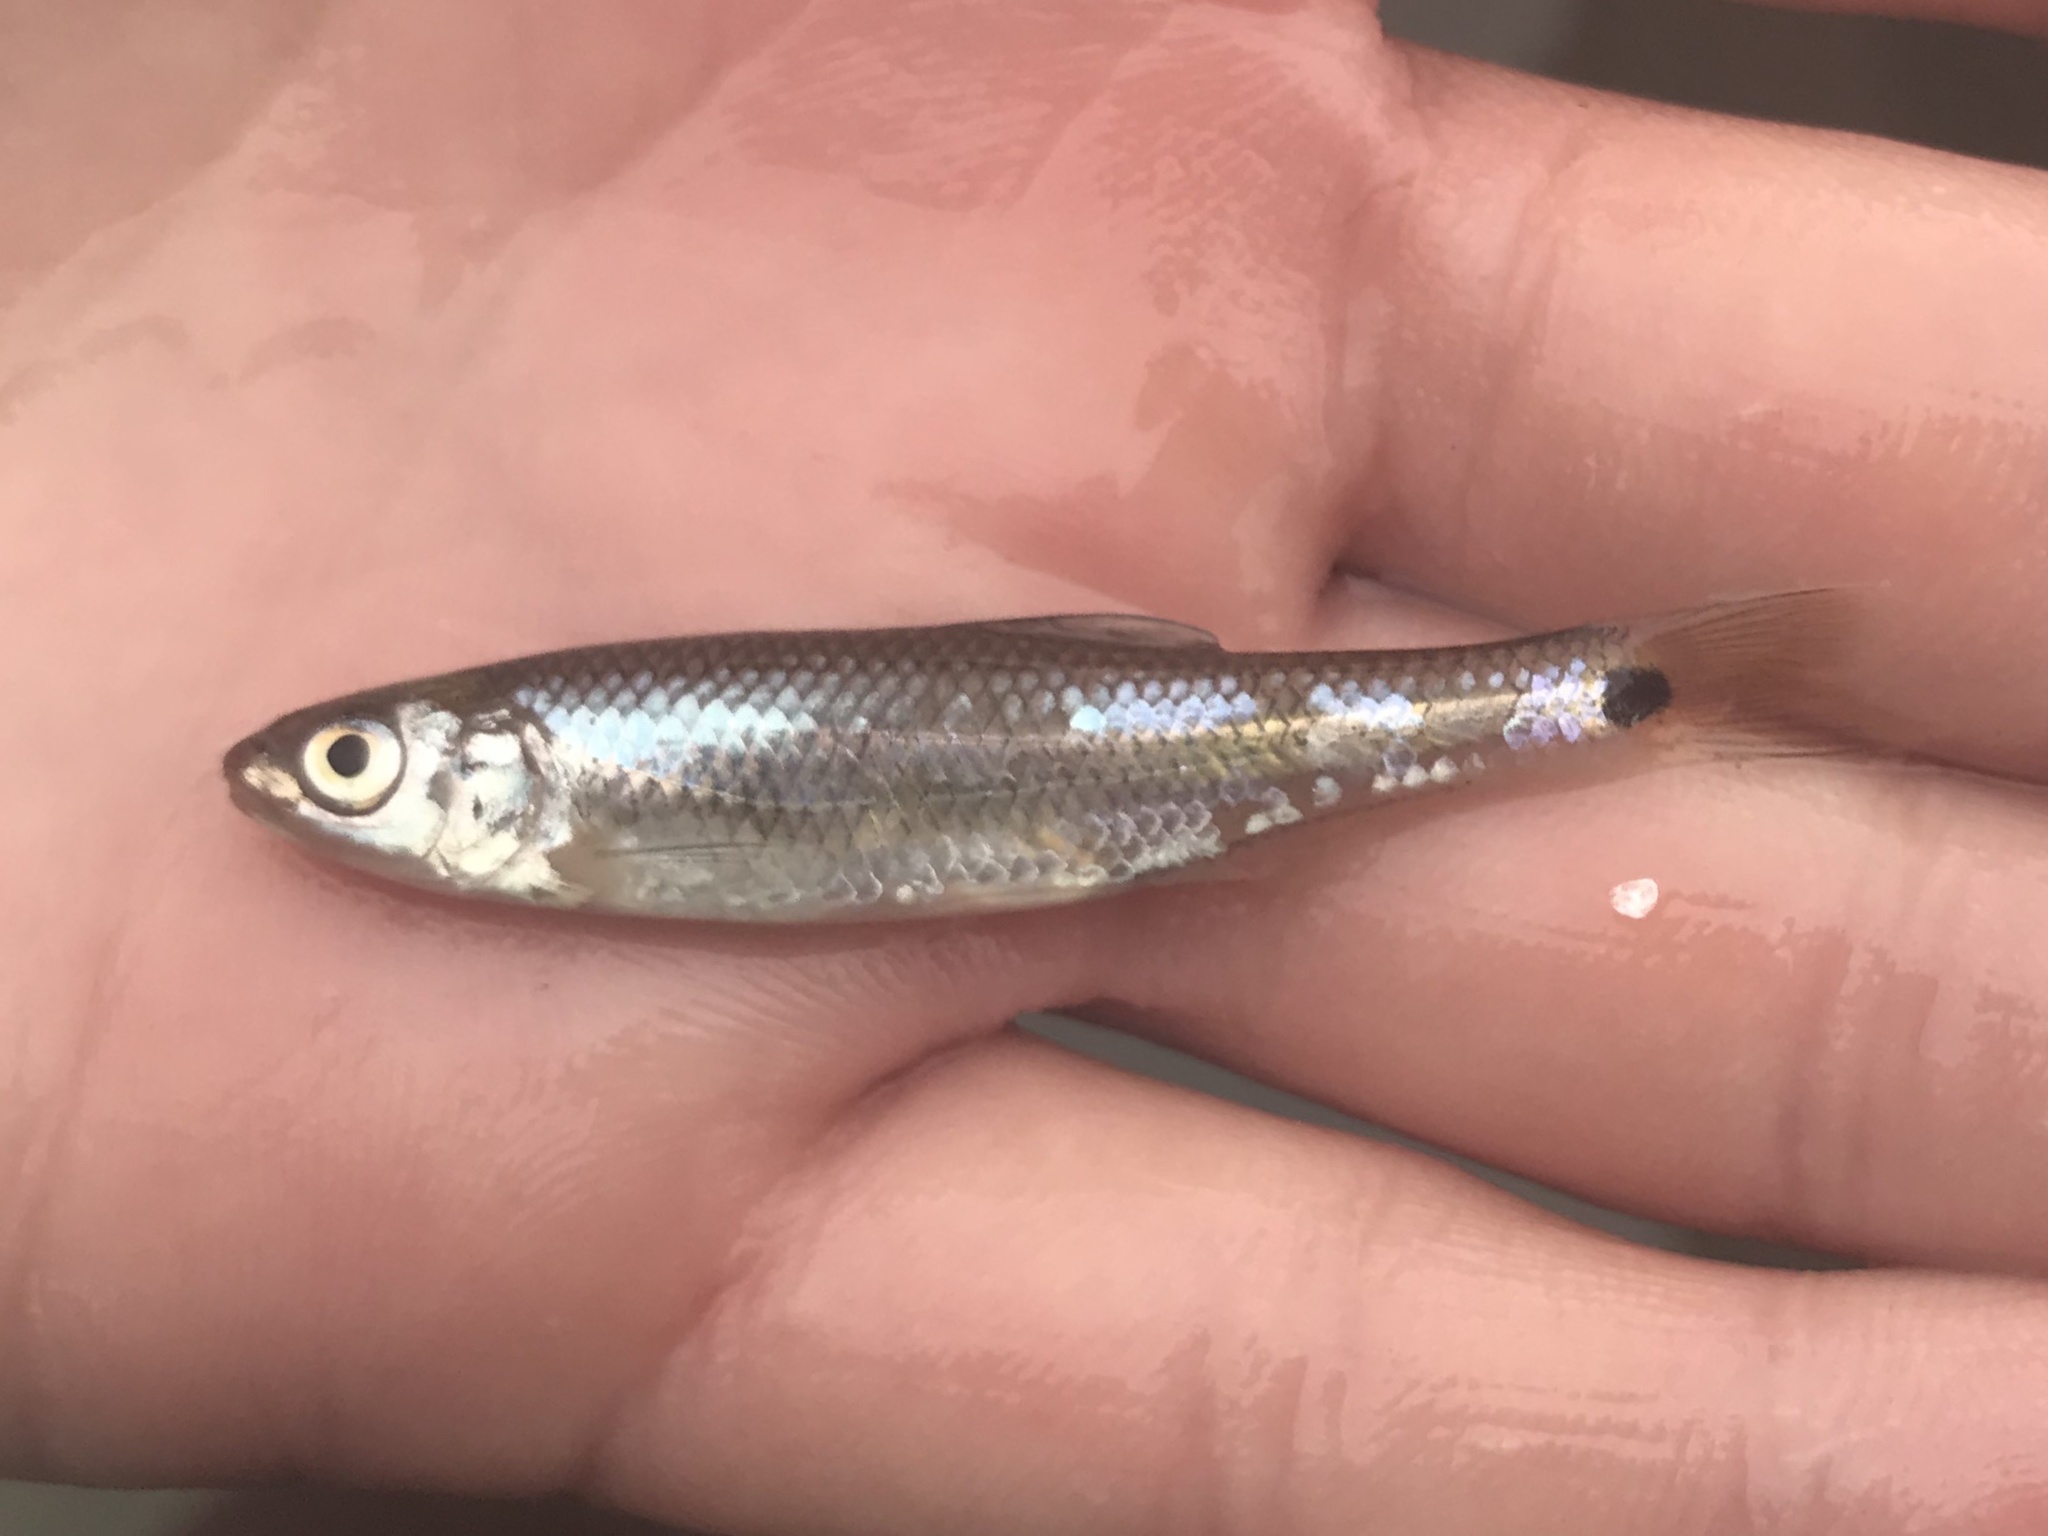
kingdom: Animalia
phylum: Chordata
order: Cypriniformes
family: Cyprinidae
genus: Cyprinella
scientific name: Cyprinella venusta
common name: Blacktail shiner
